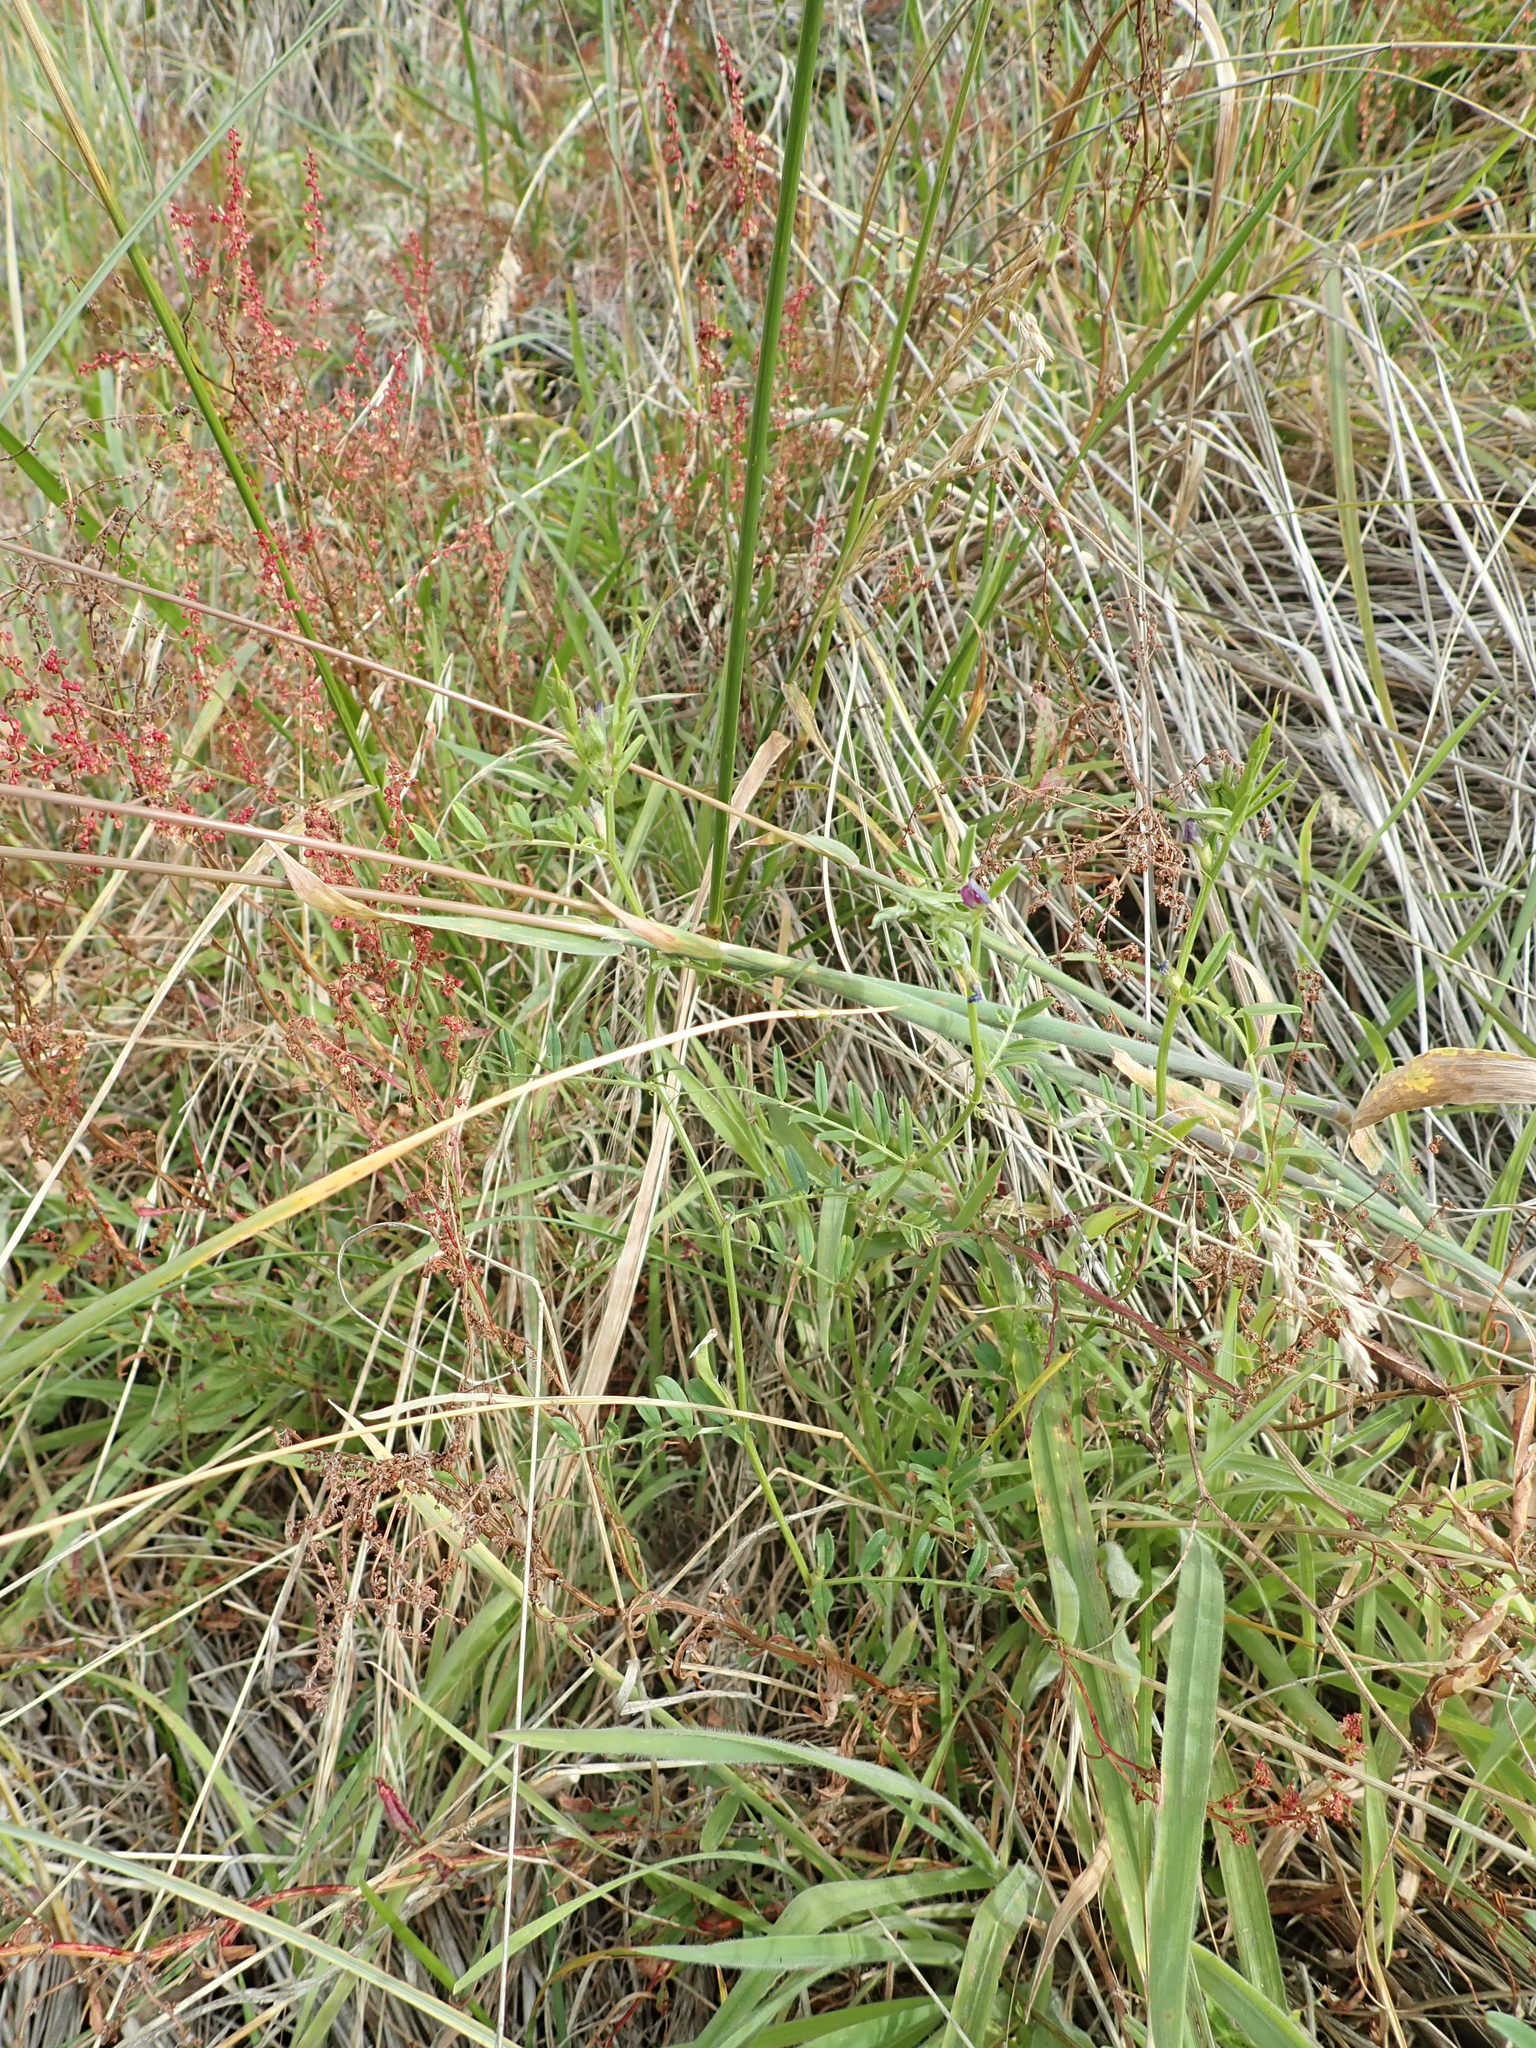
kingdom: Plantae
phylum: Tracheophyta
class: Magnoliopsida
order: Fabales
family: Fabaceae
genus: Vicia
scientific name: Vicia sativa
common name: Garden vetch
